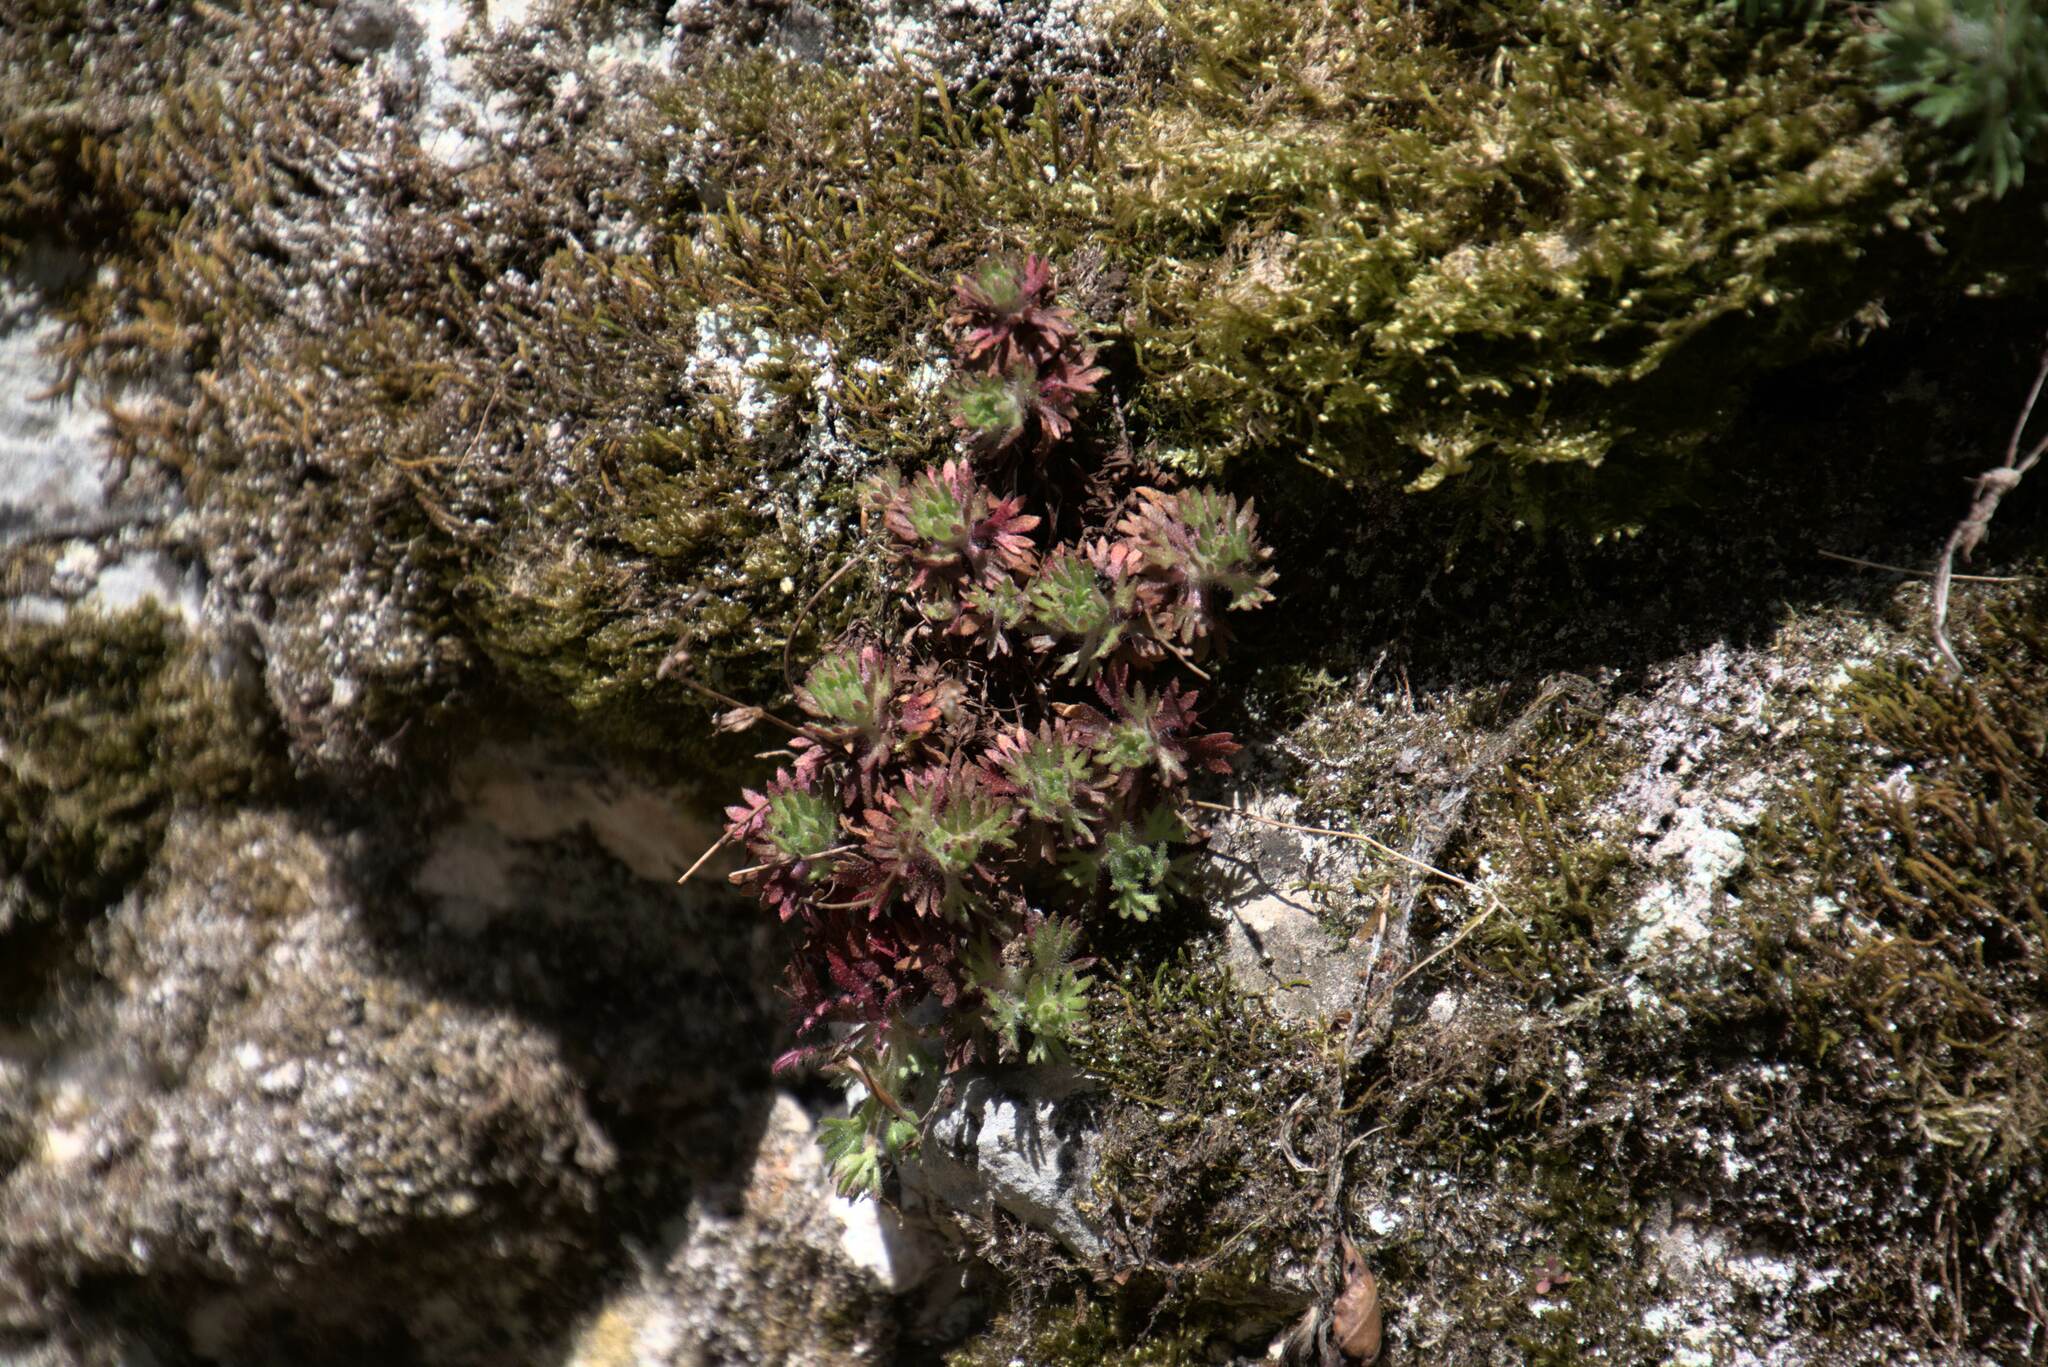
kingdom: Plantae
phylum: Tracheophyta
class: Magnoliopsida
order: Saxifragales
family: Saxifragaceae
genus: Saxifraga
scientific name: Saxifraga rosacea
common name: Irish saxifrage
